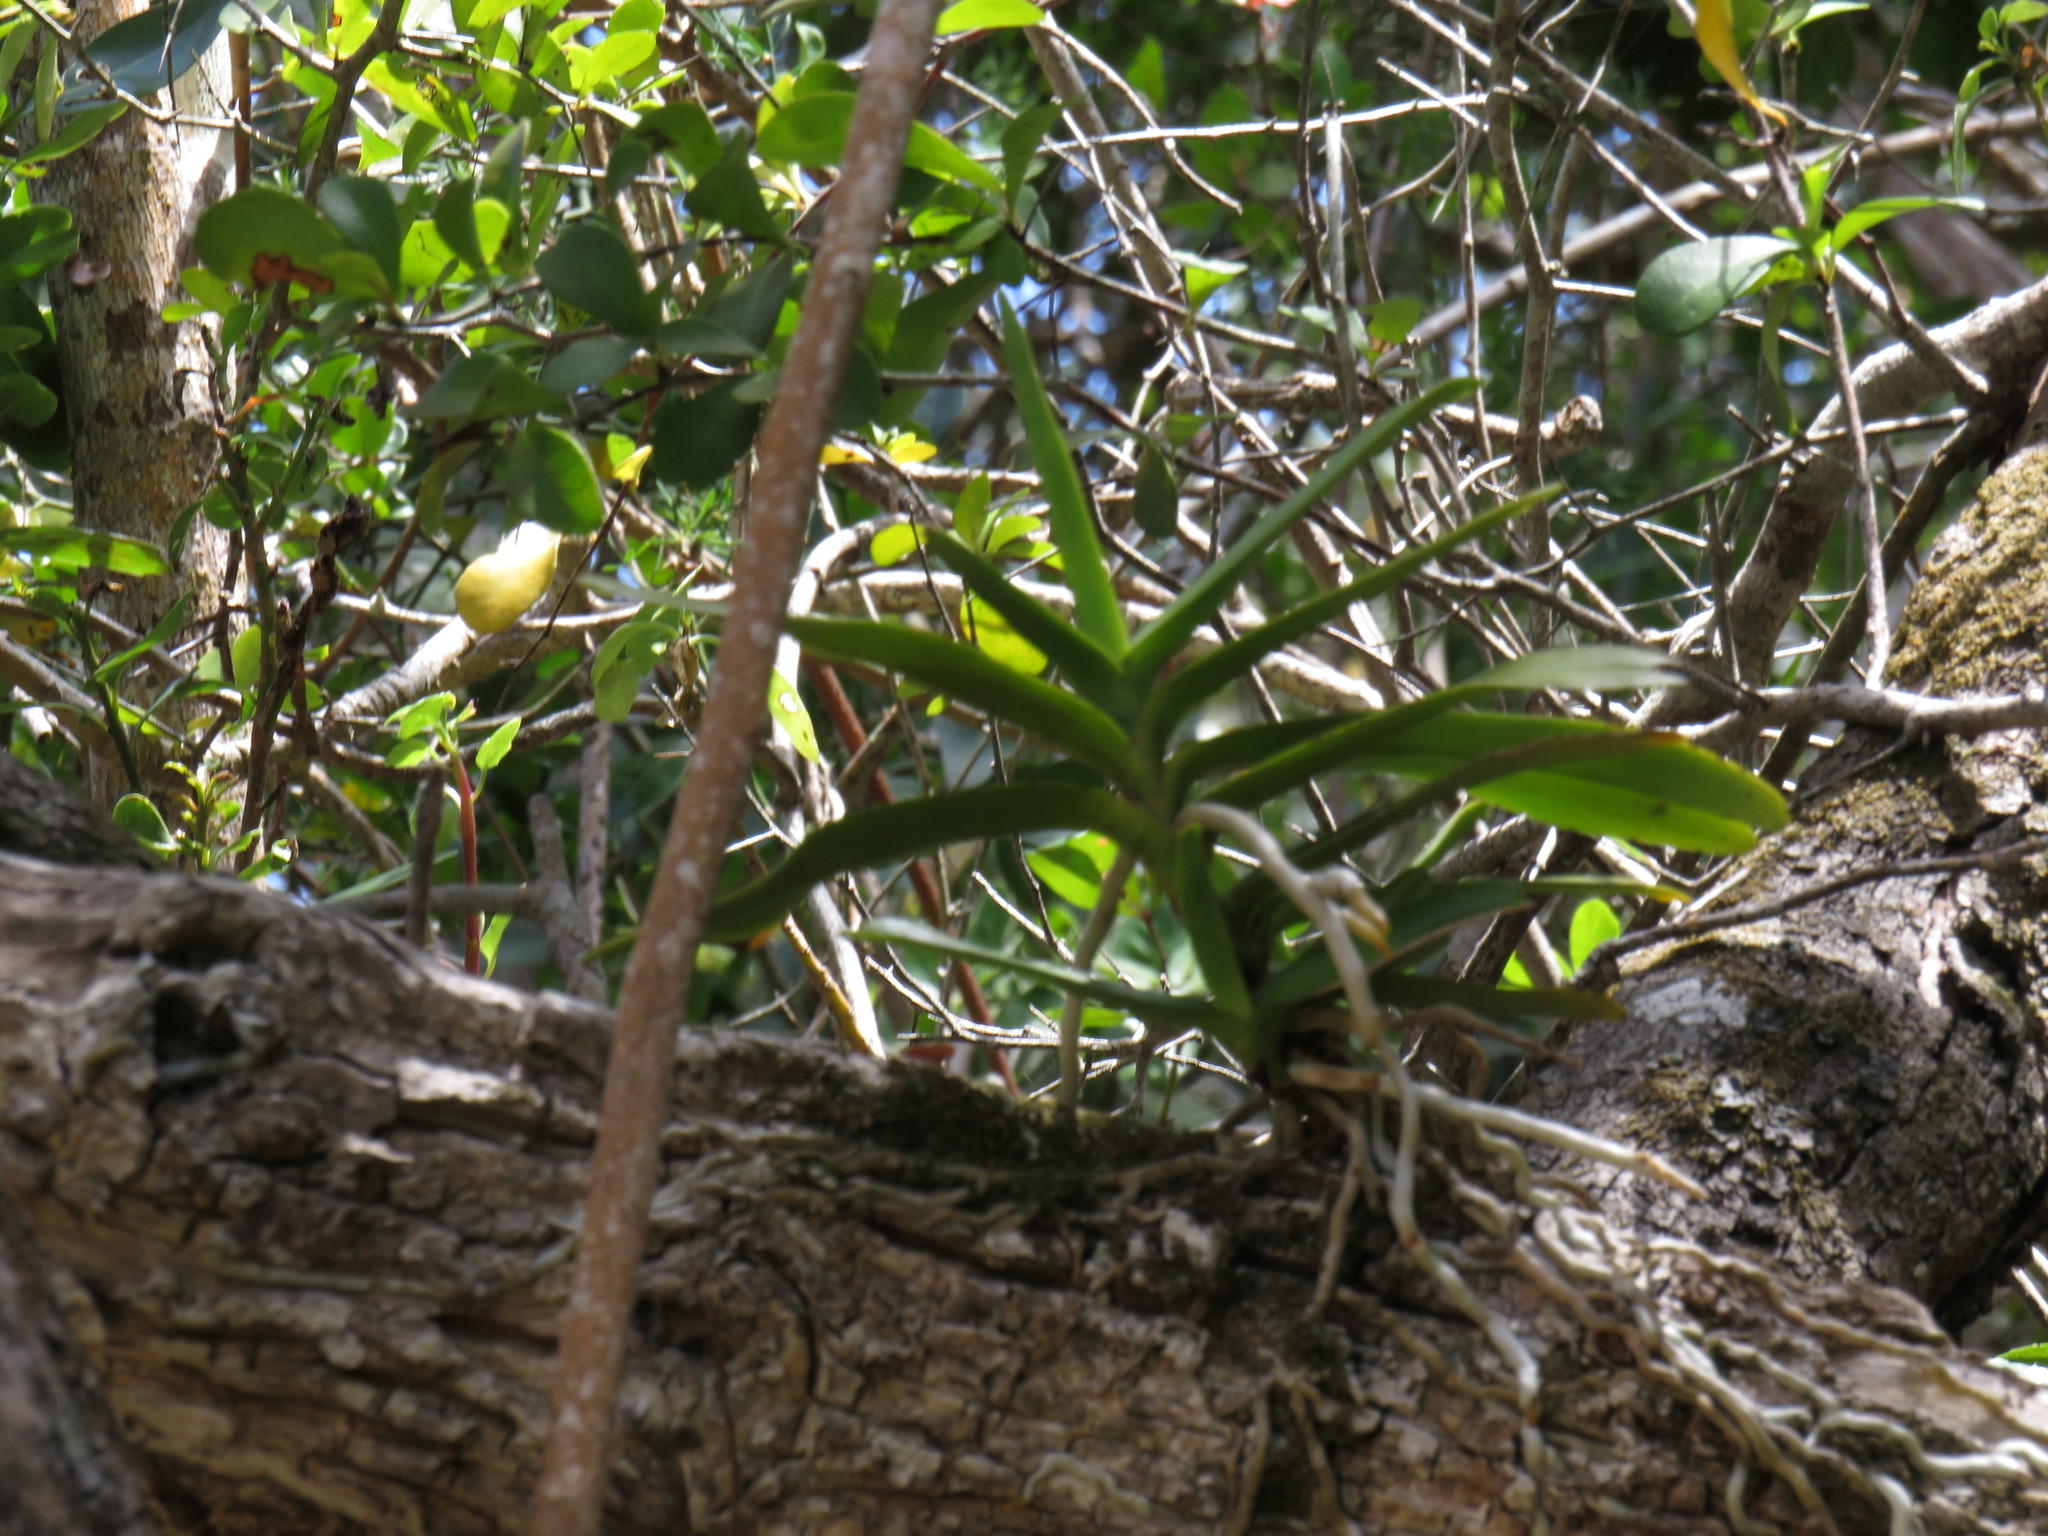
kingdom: Plantae
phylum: Tracheophyta
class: Liliopsida
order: Asparagales
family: Orchidaceae
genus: Cyrtorchis
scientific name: Cyrtorchis arcuata
